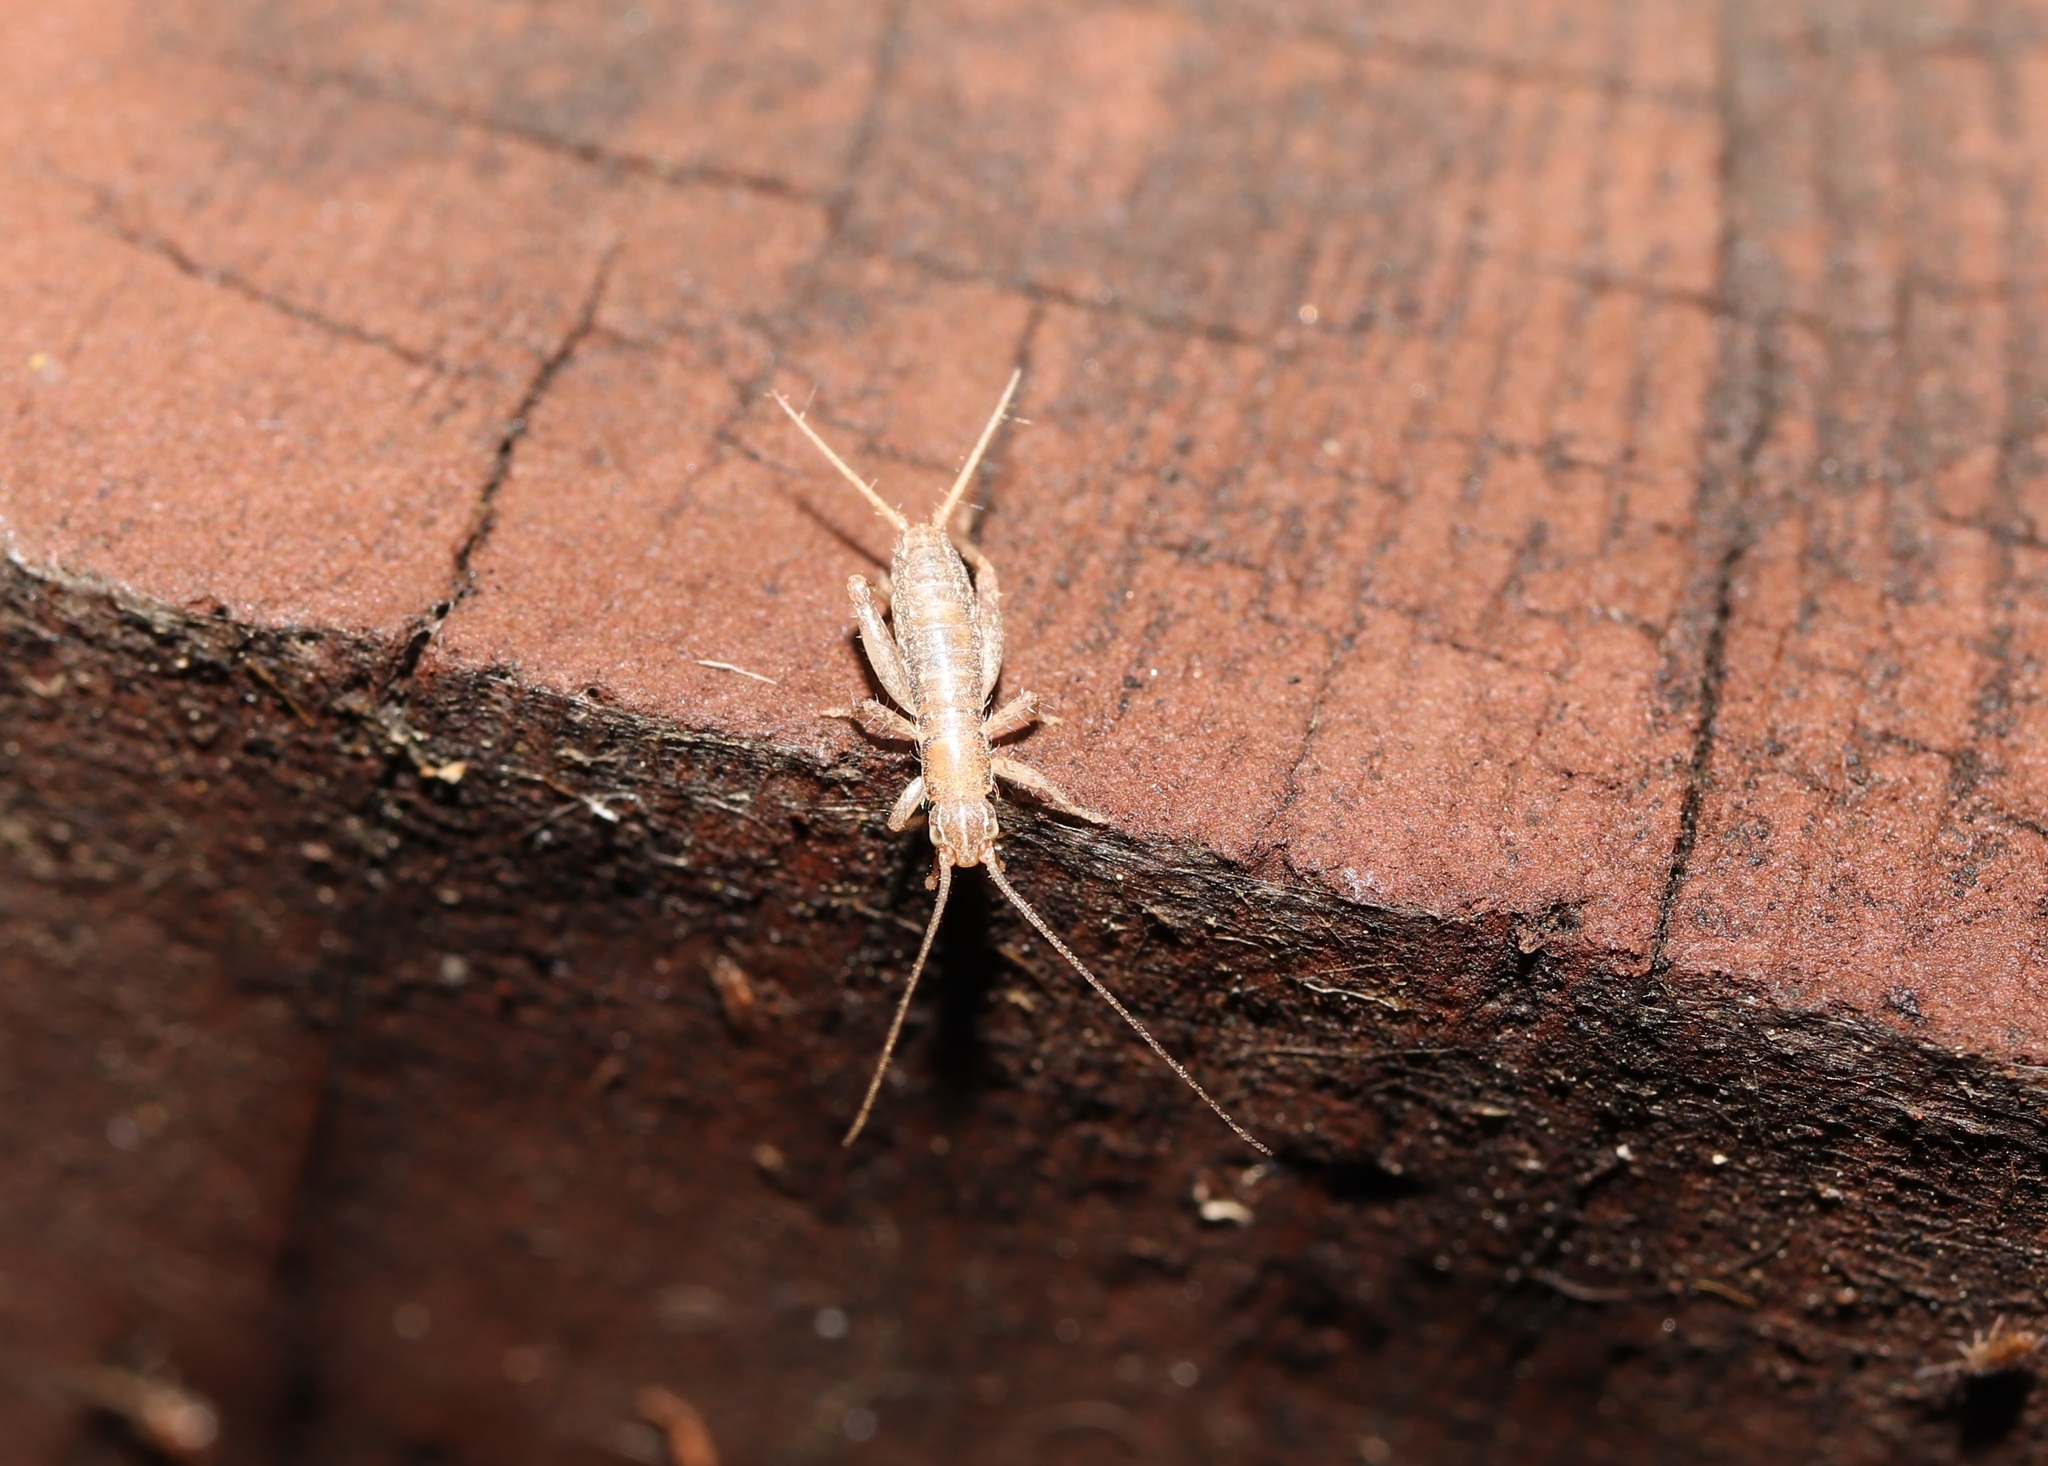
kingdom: Animalia
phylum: Arthropoda
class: Insecta
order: Orthoptera
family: Mogoplistidae
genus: Ornebius
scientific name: Ornebius kanetataki
